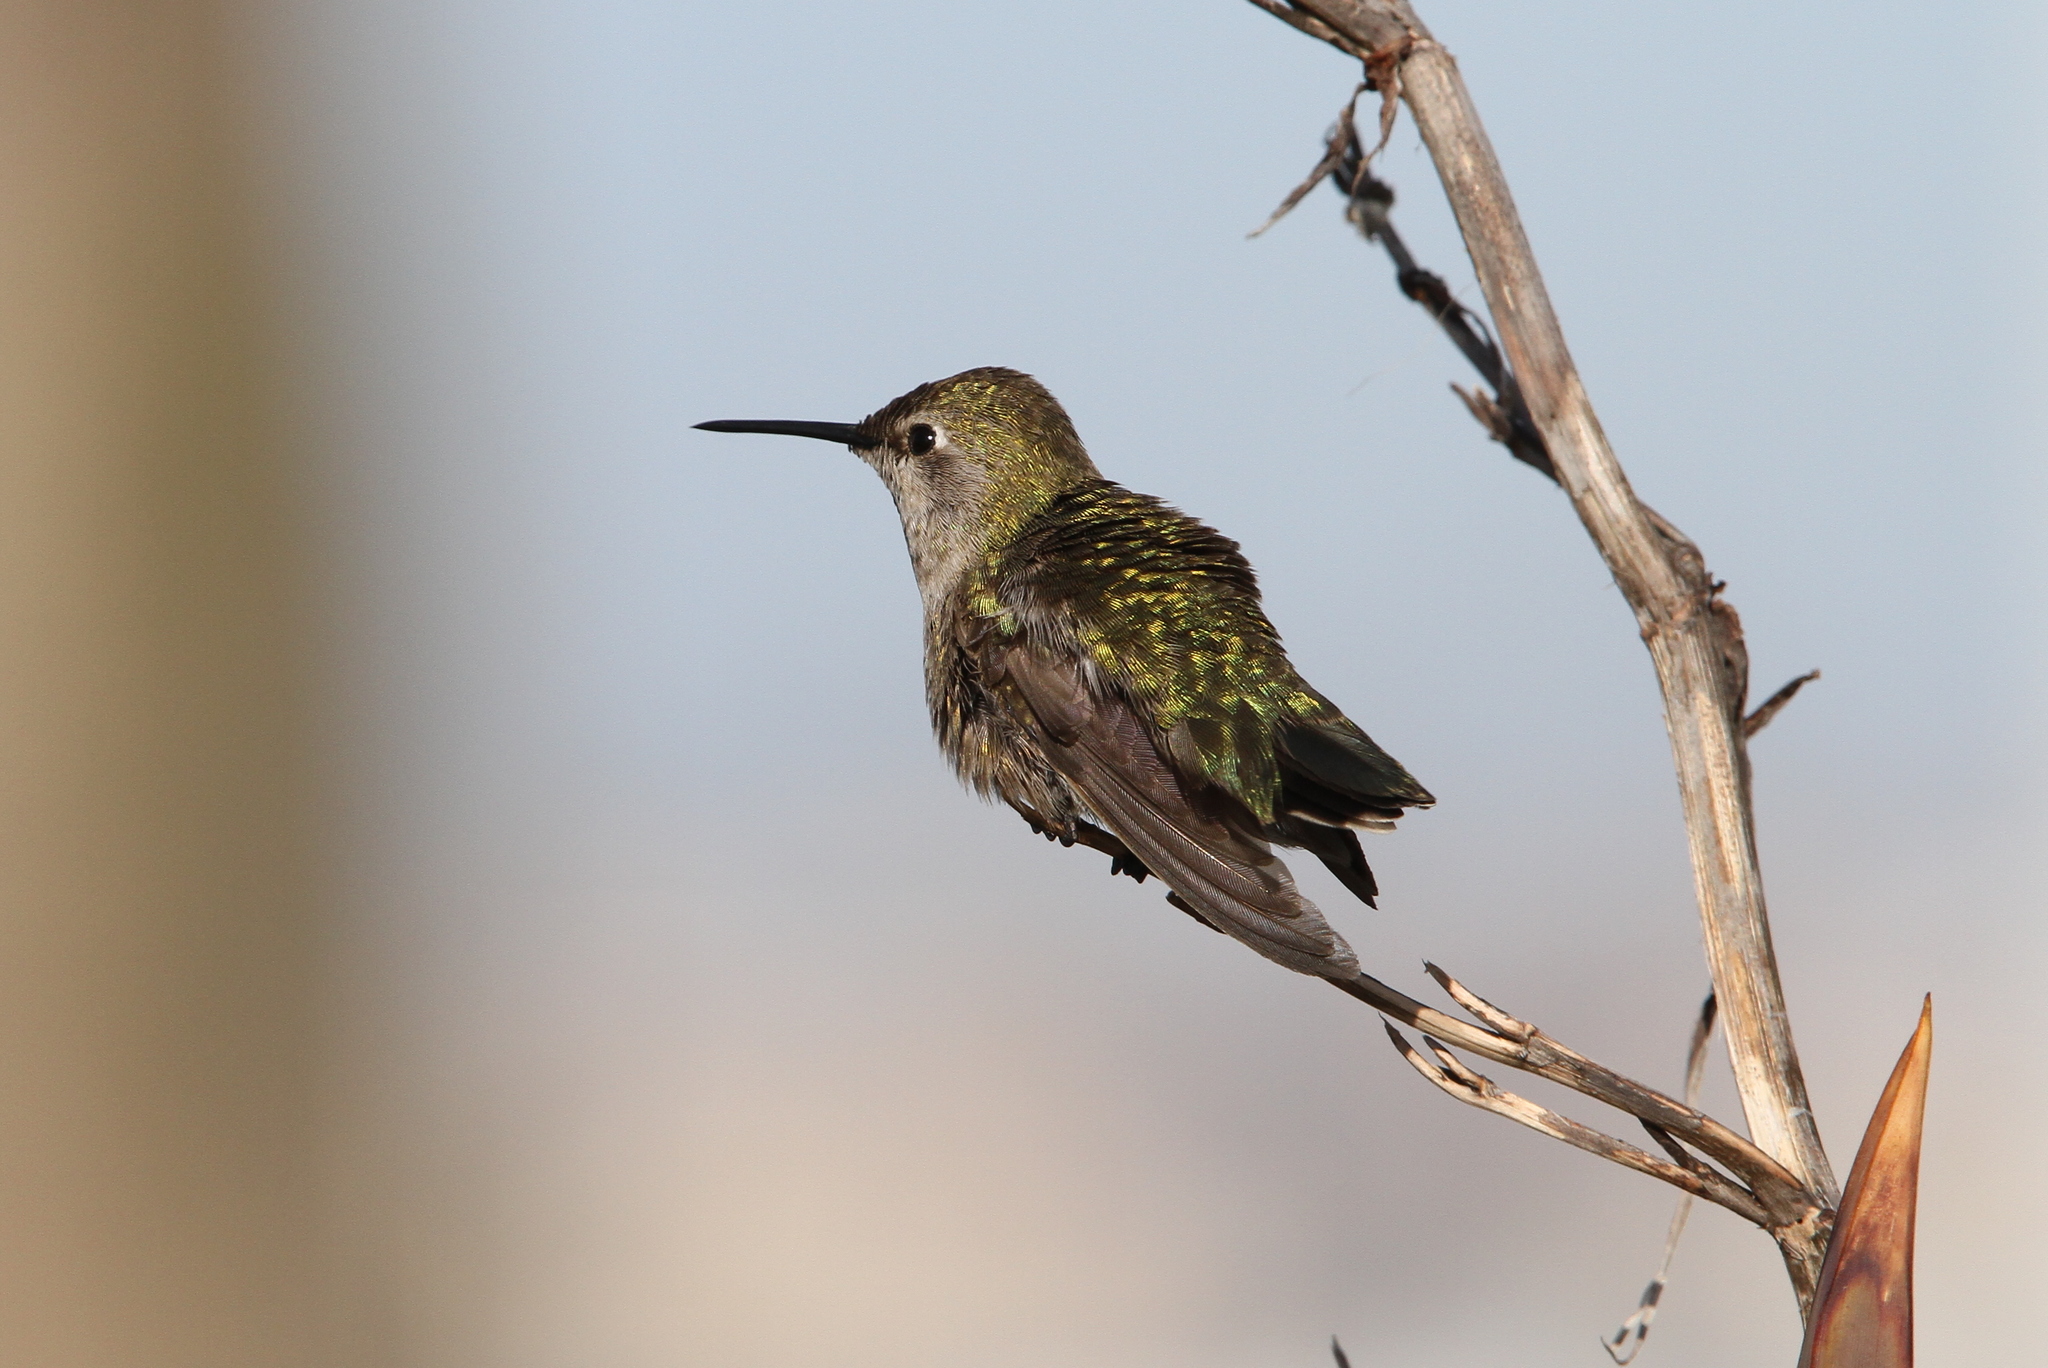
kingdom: Animalia
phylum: Chordata
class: Aves
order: Apodiformes
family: Trochilidae
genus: Calypte
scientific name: Calypte anna
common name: Anna's hummingbird
